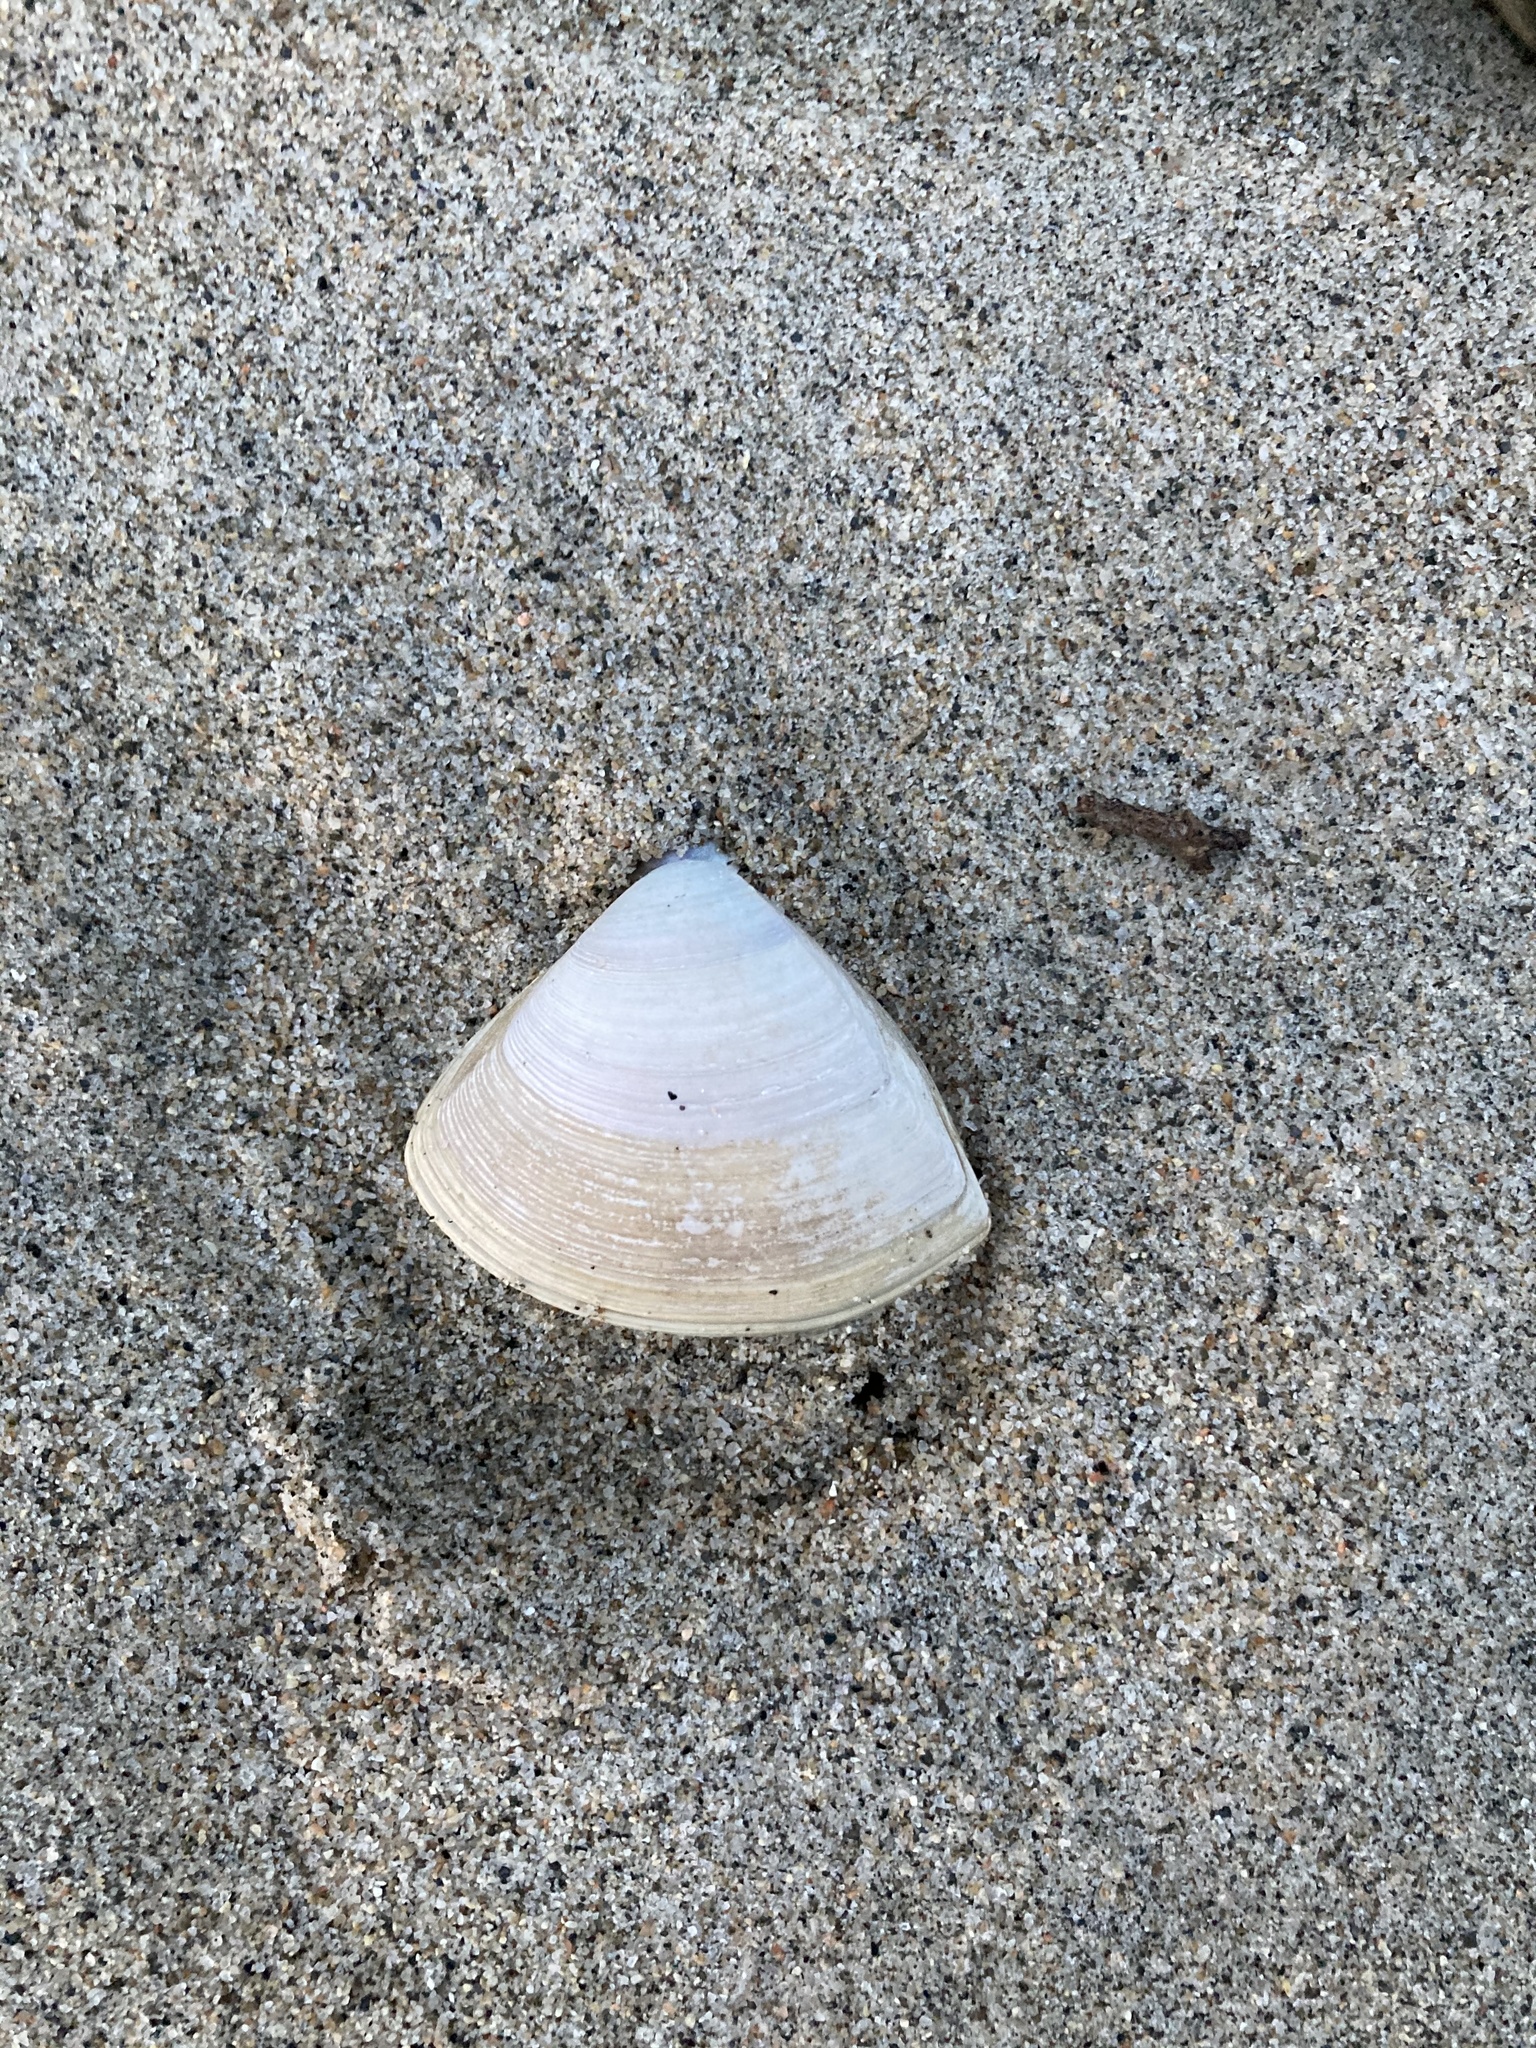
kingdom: Animalia
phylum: Mollusca
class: Bivalvia
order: Venerida
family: Mactridae
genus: Crassula
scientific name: Crassula aequilatera
